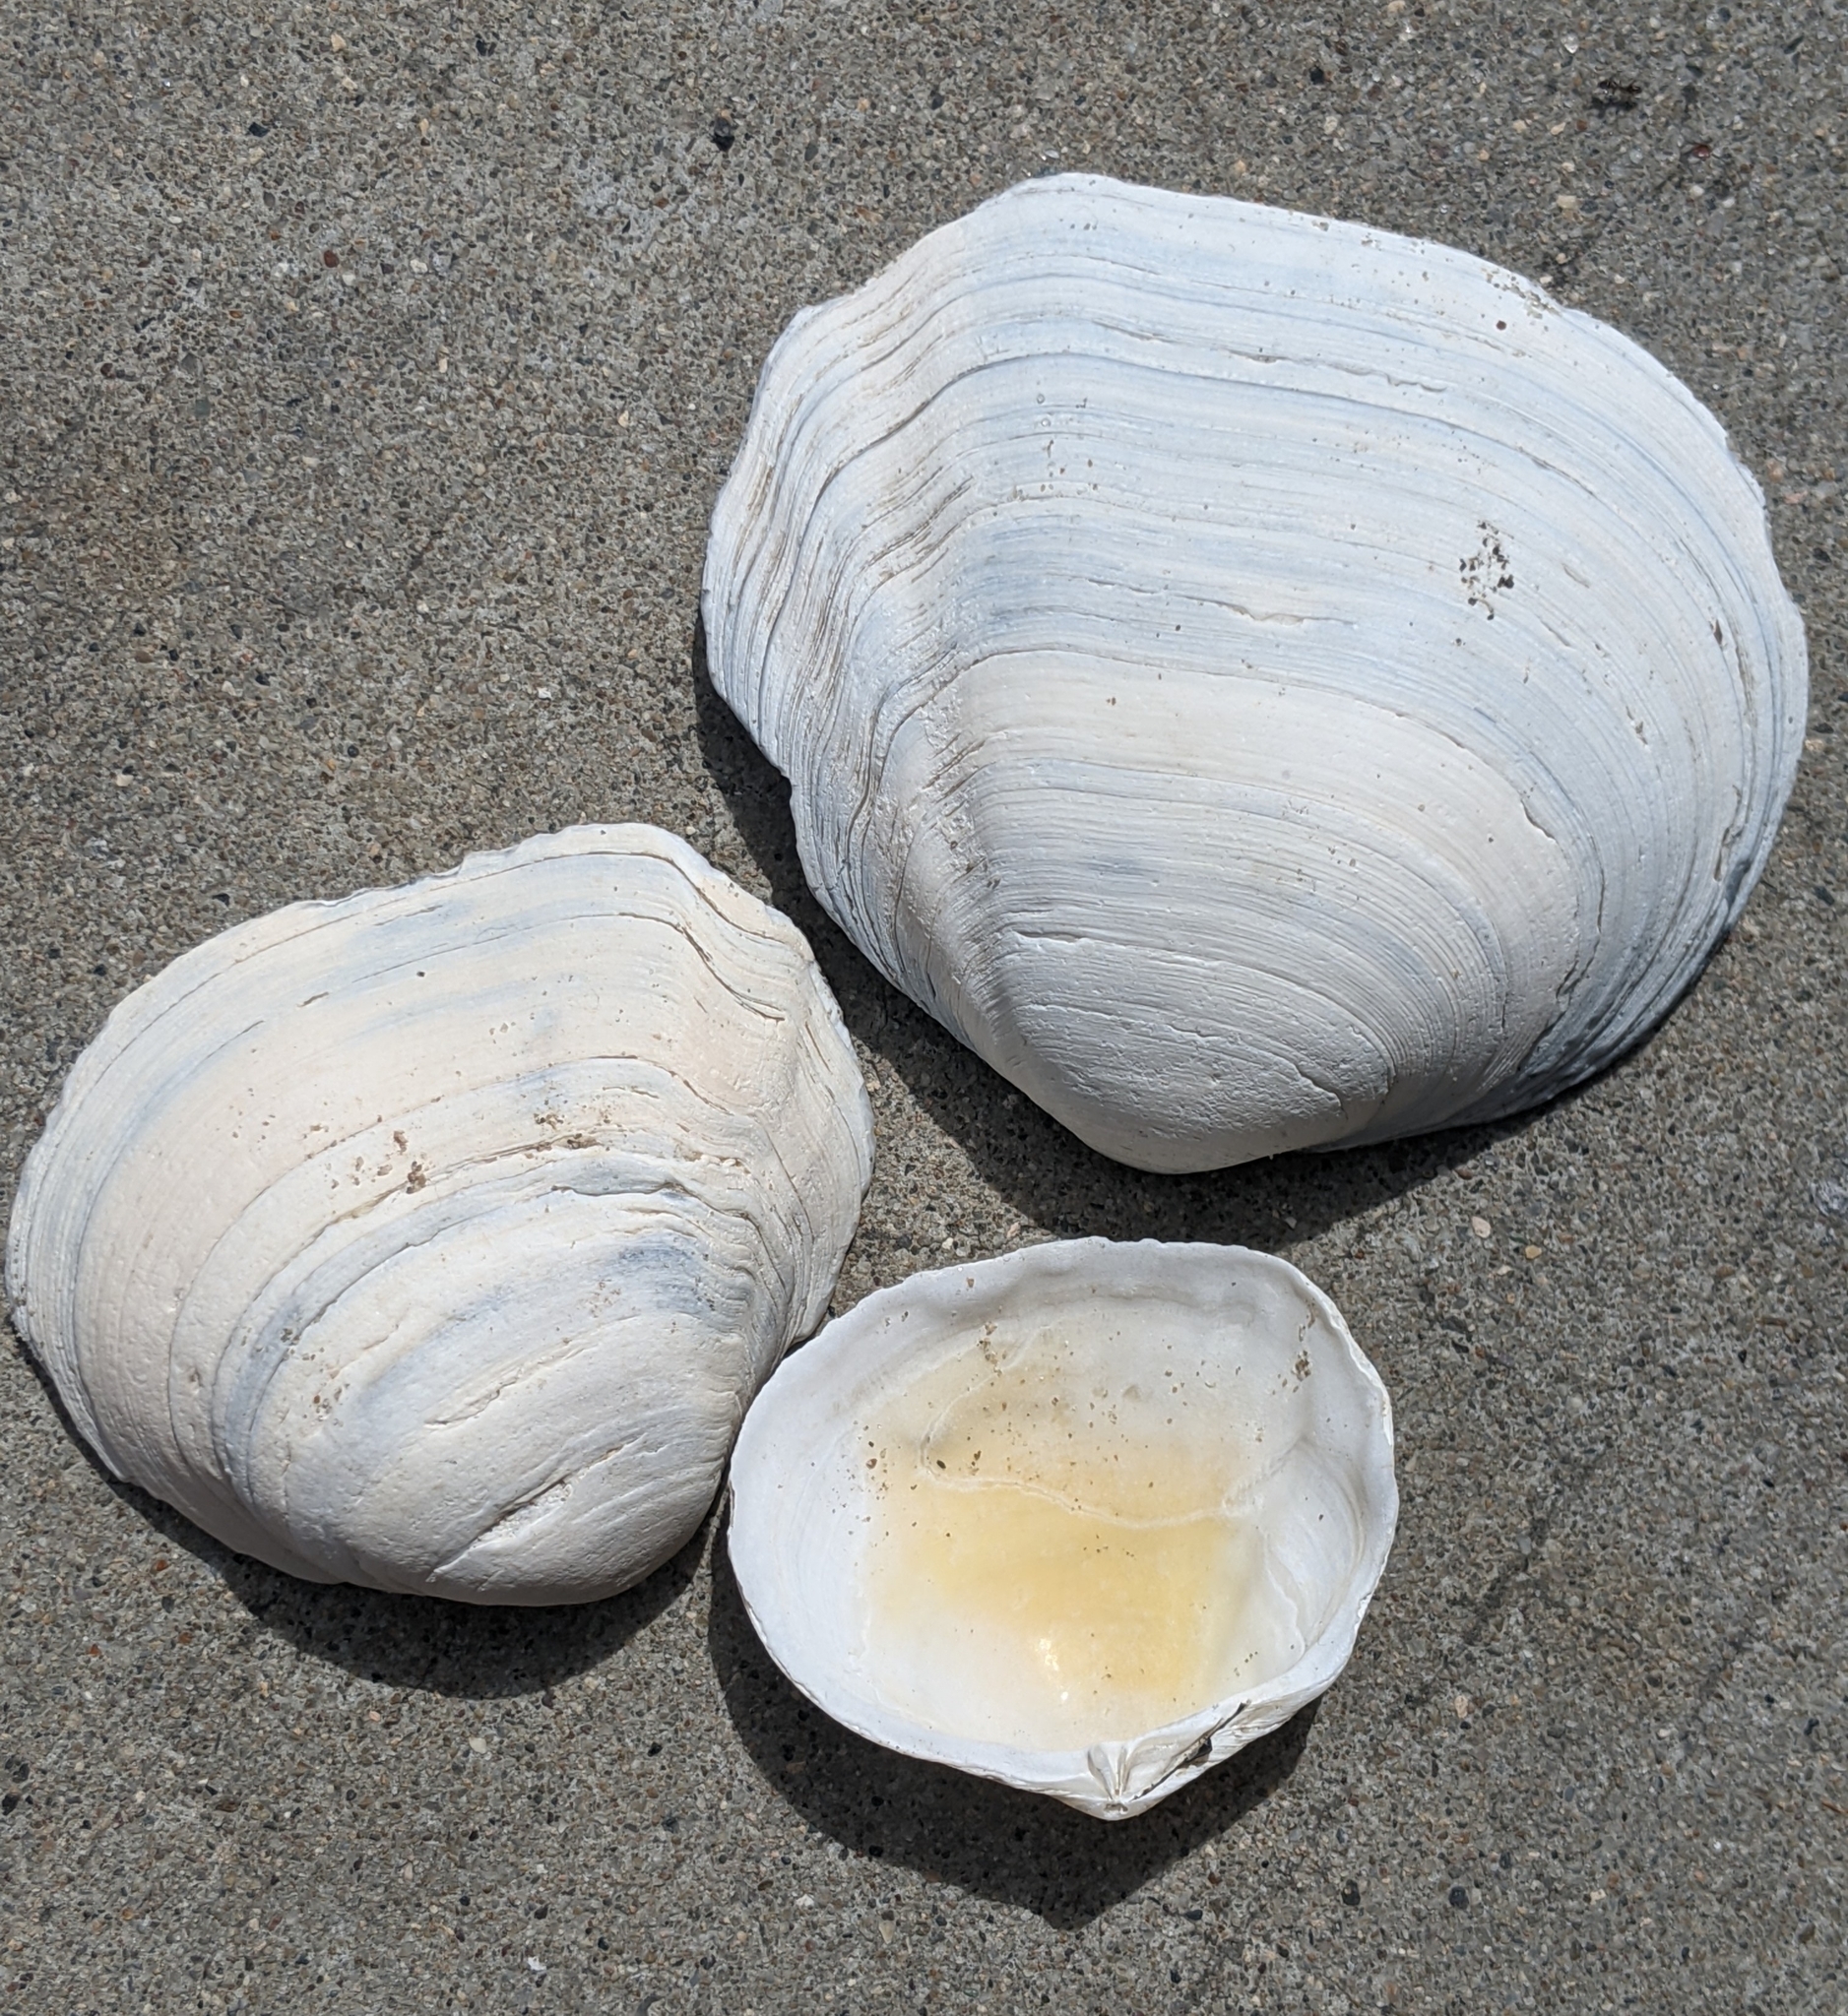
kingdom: Animalia
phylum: Mollusca
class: Bivalvia
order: Cardiida
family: Tellinidae
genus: Leporimetis
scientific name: Leporimetis obesa
